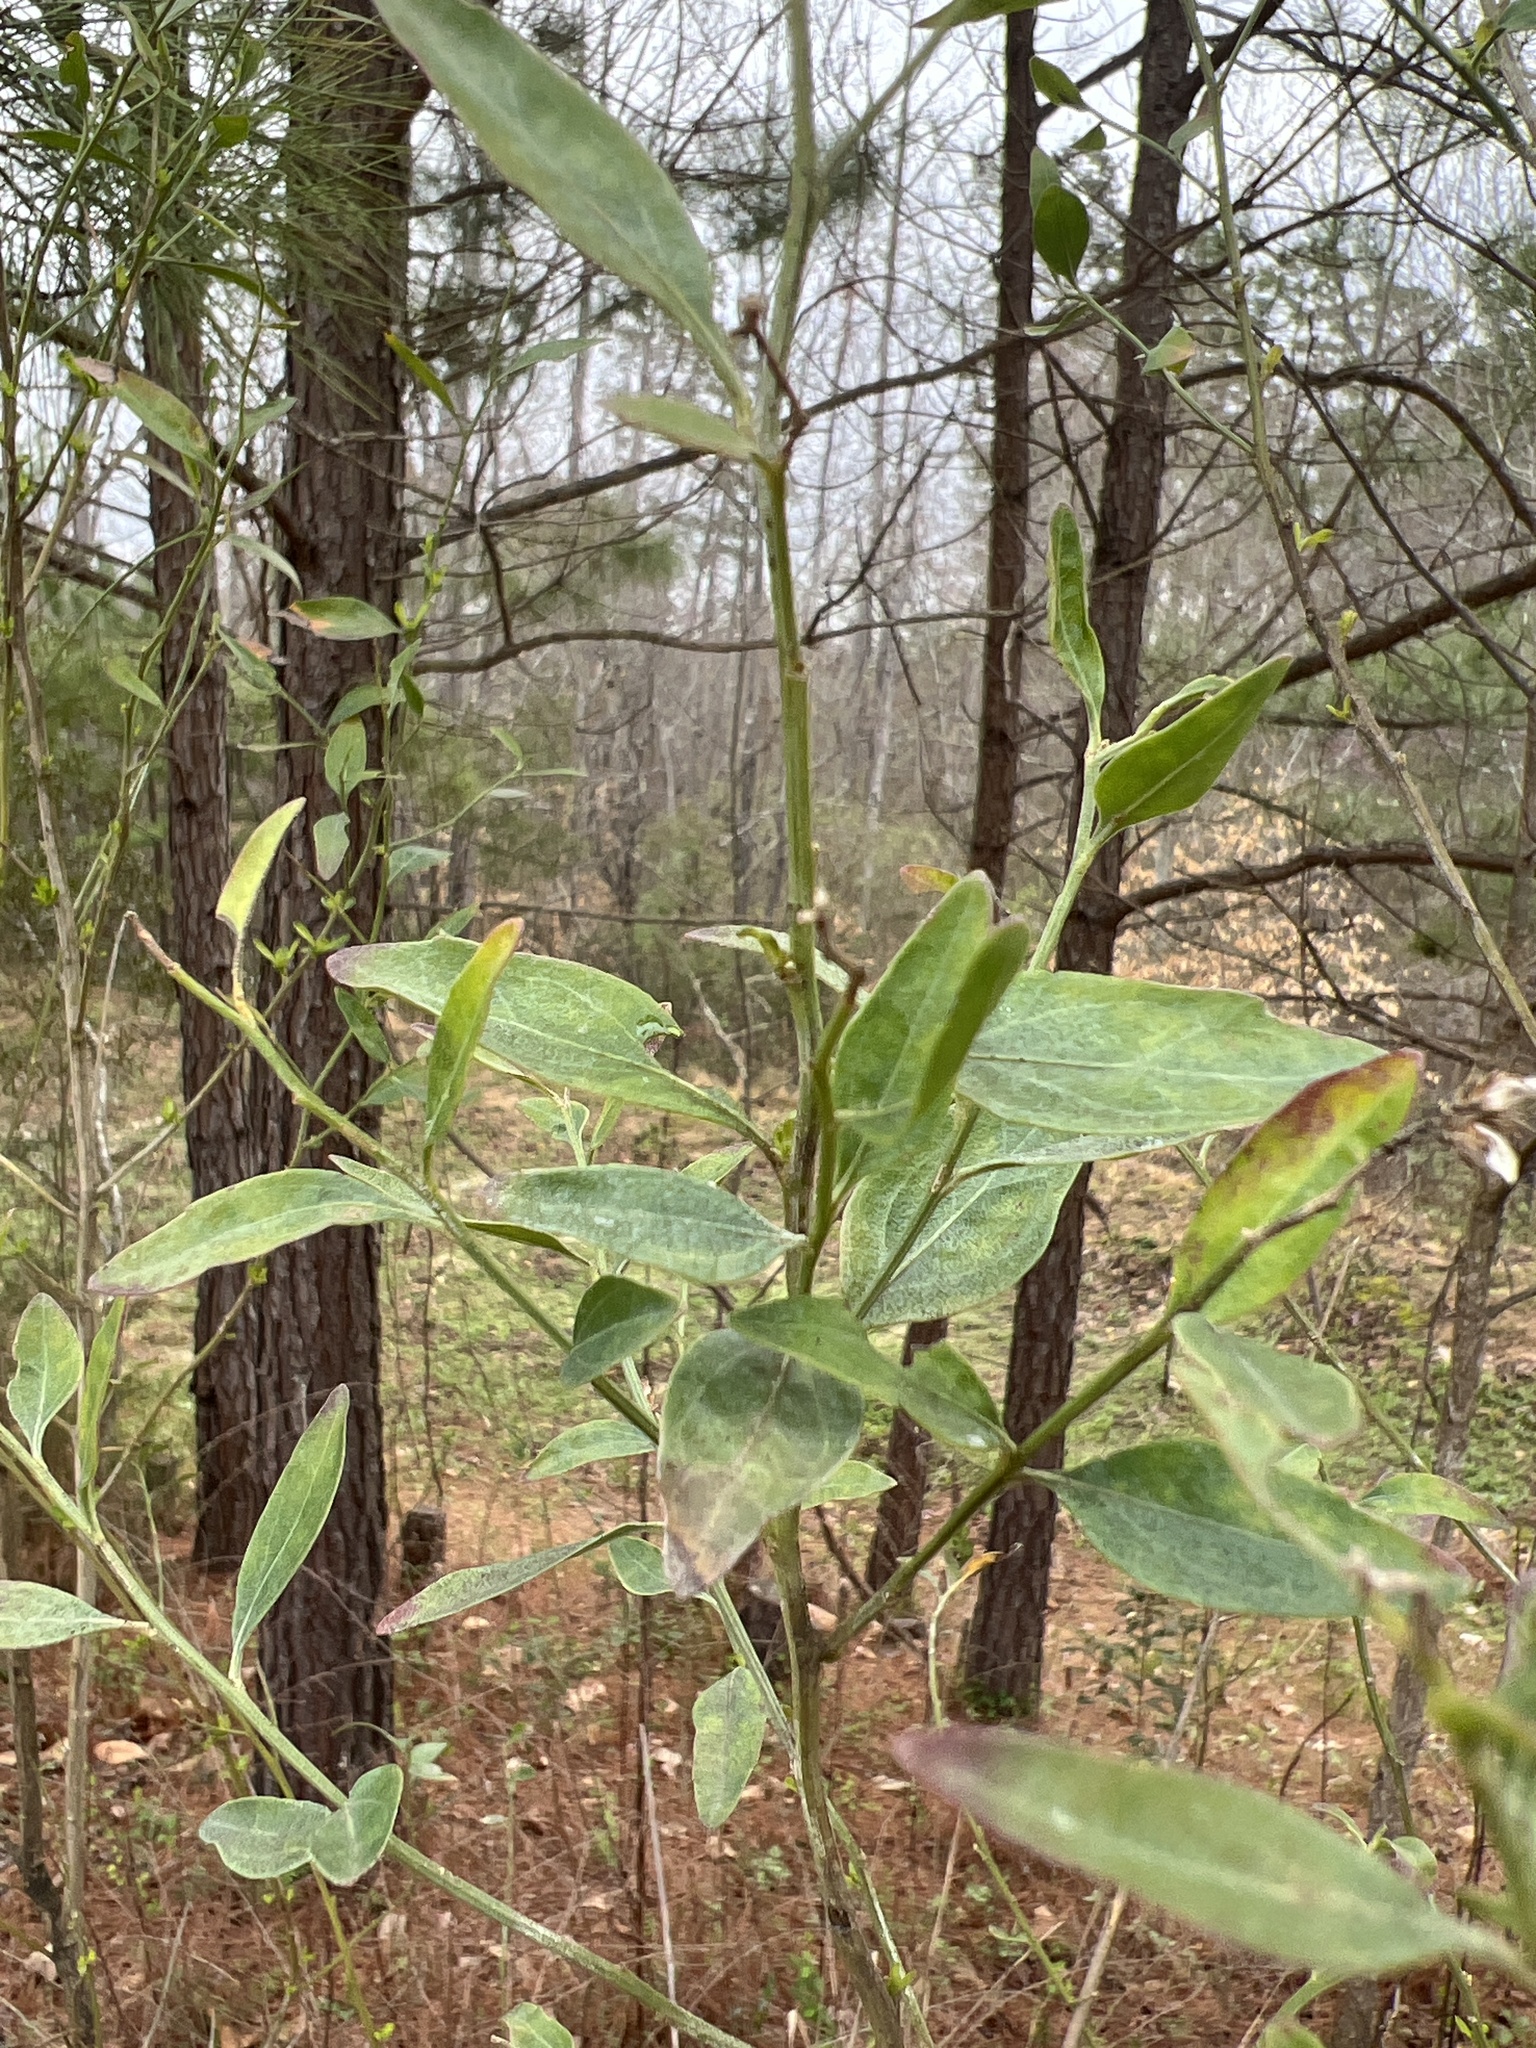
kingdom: Plantae
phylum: Tracheophyta
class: Magnoliopsida
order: Asterales
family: Asteraceae
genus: Baccharis
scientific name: Baccharis halimifolia
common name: Eastern baccharis
